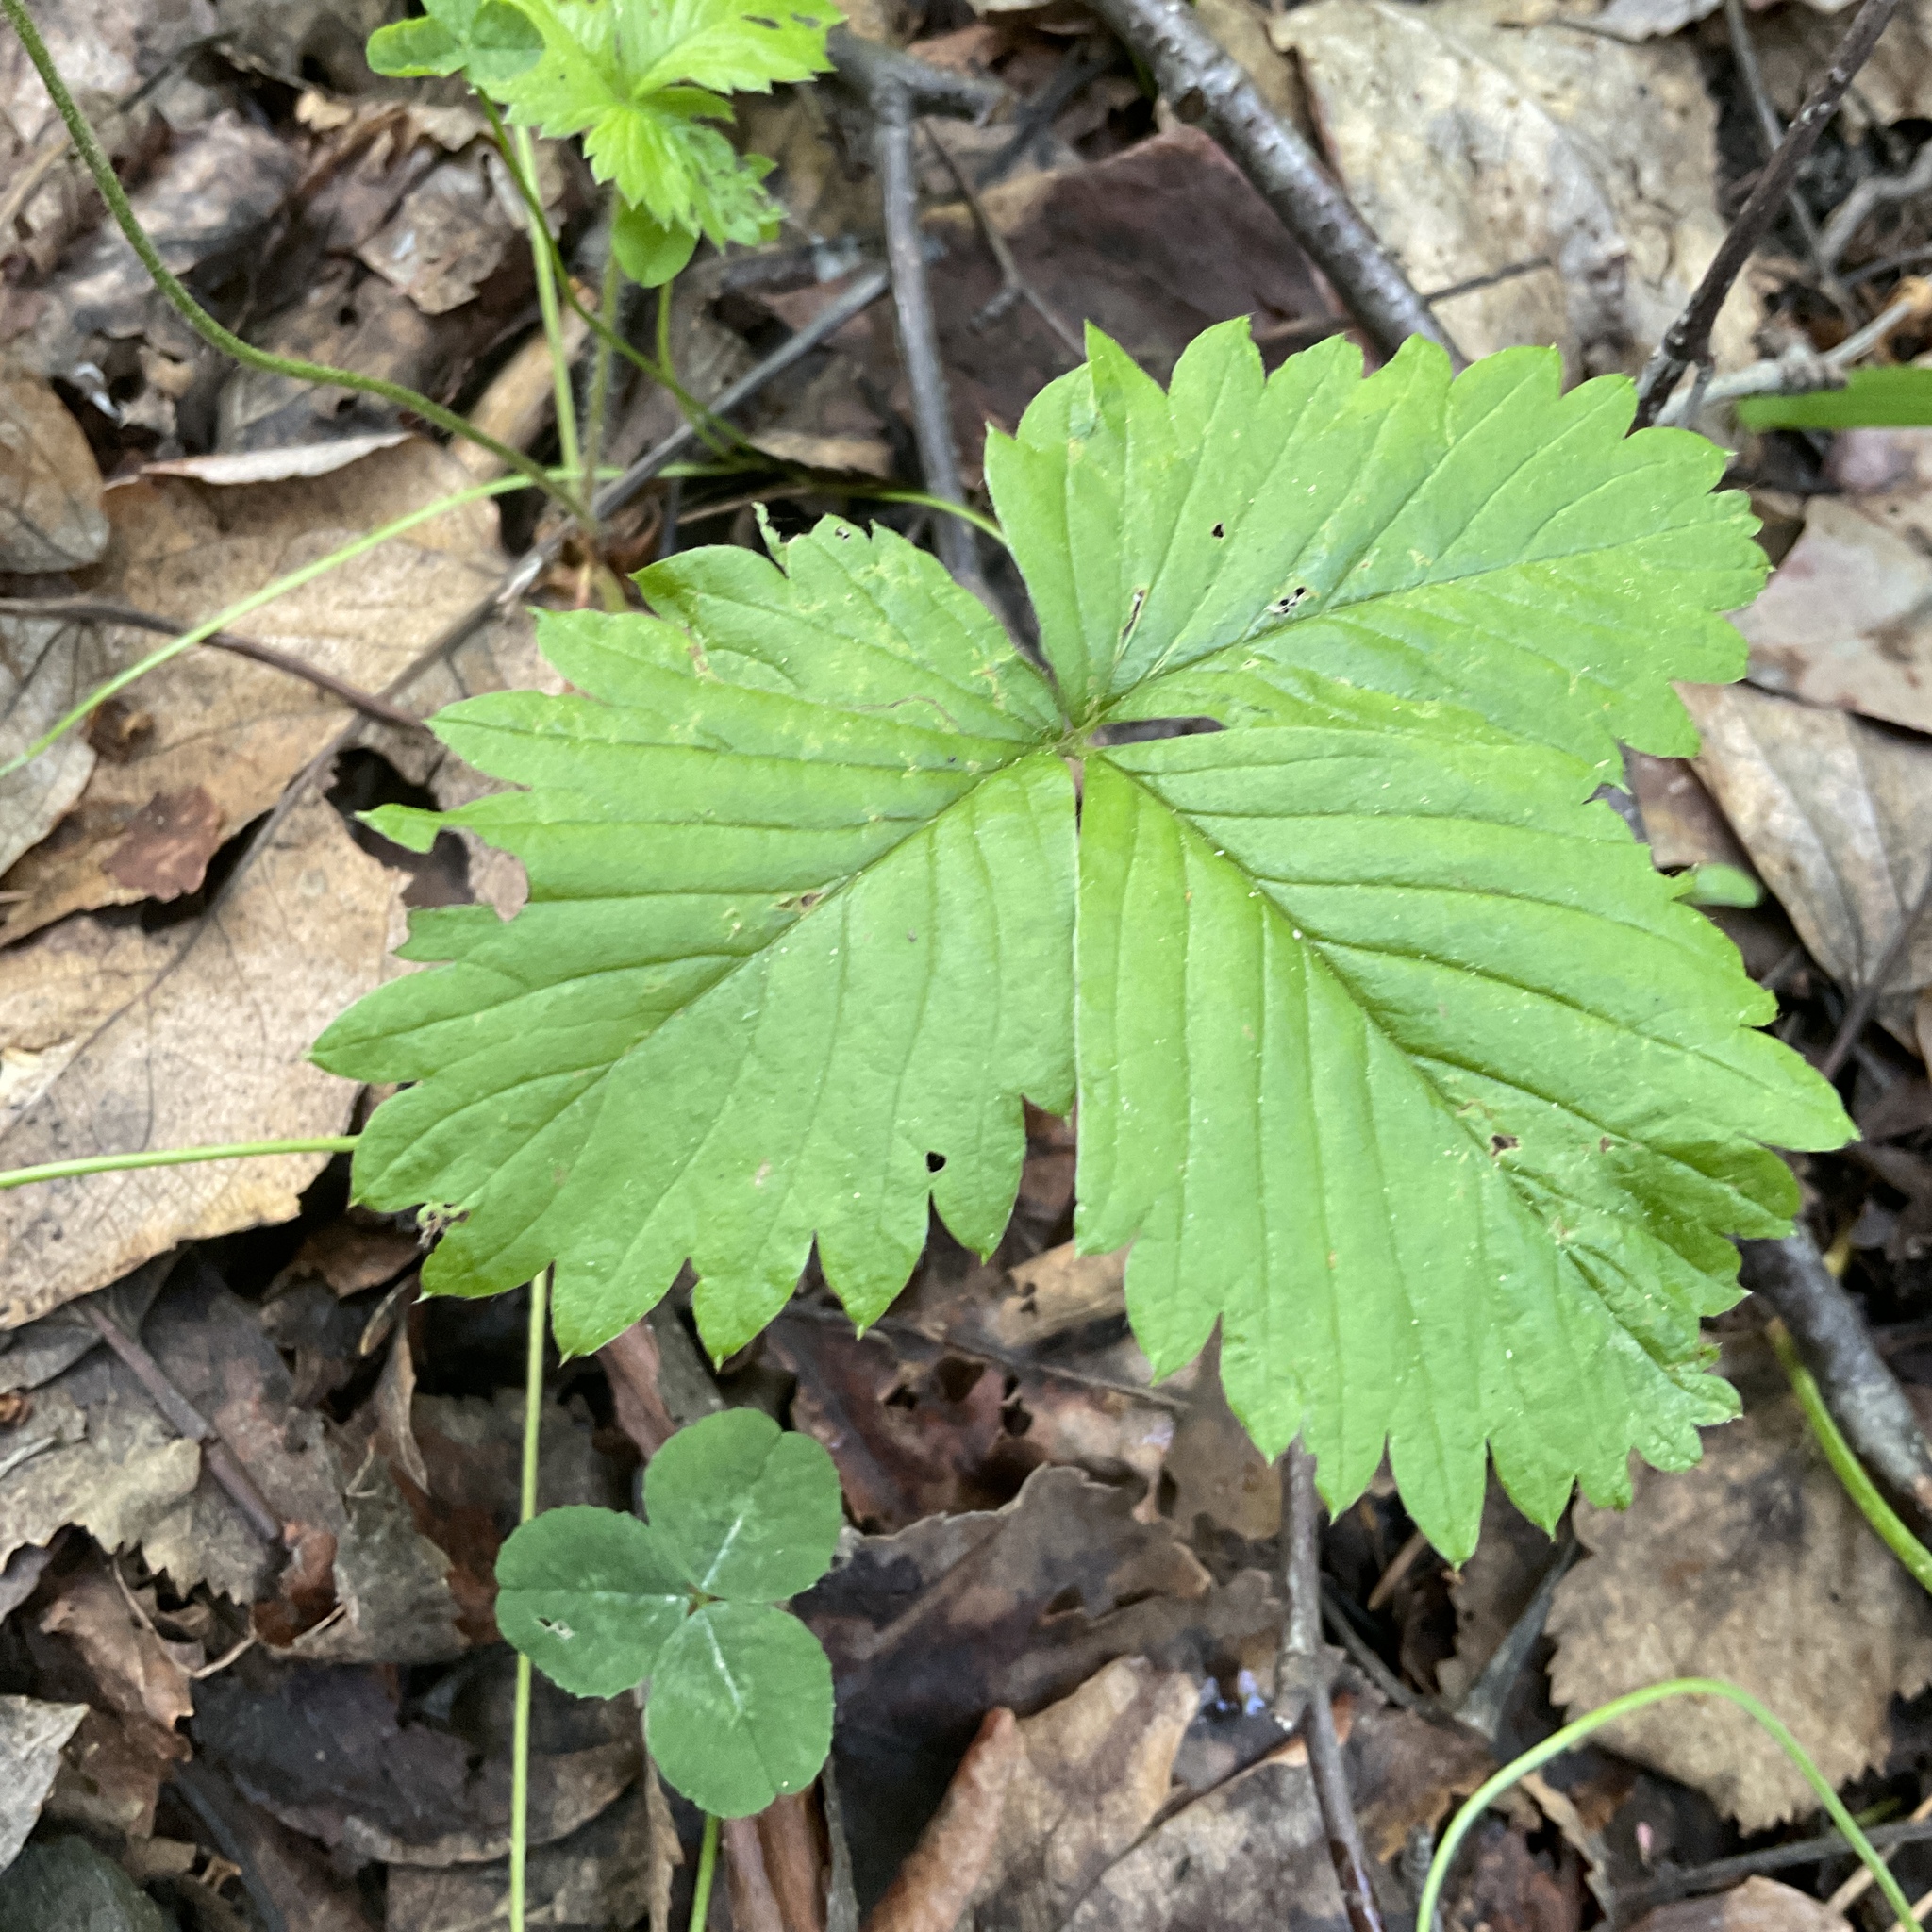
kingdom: Plantae
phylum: Tracheophyta
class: Magnoliopsida
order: Rosales
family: Rosaceae
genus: Fragaria
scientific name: Fragaria vesca
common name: Wild strawberry
